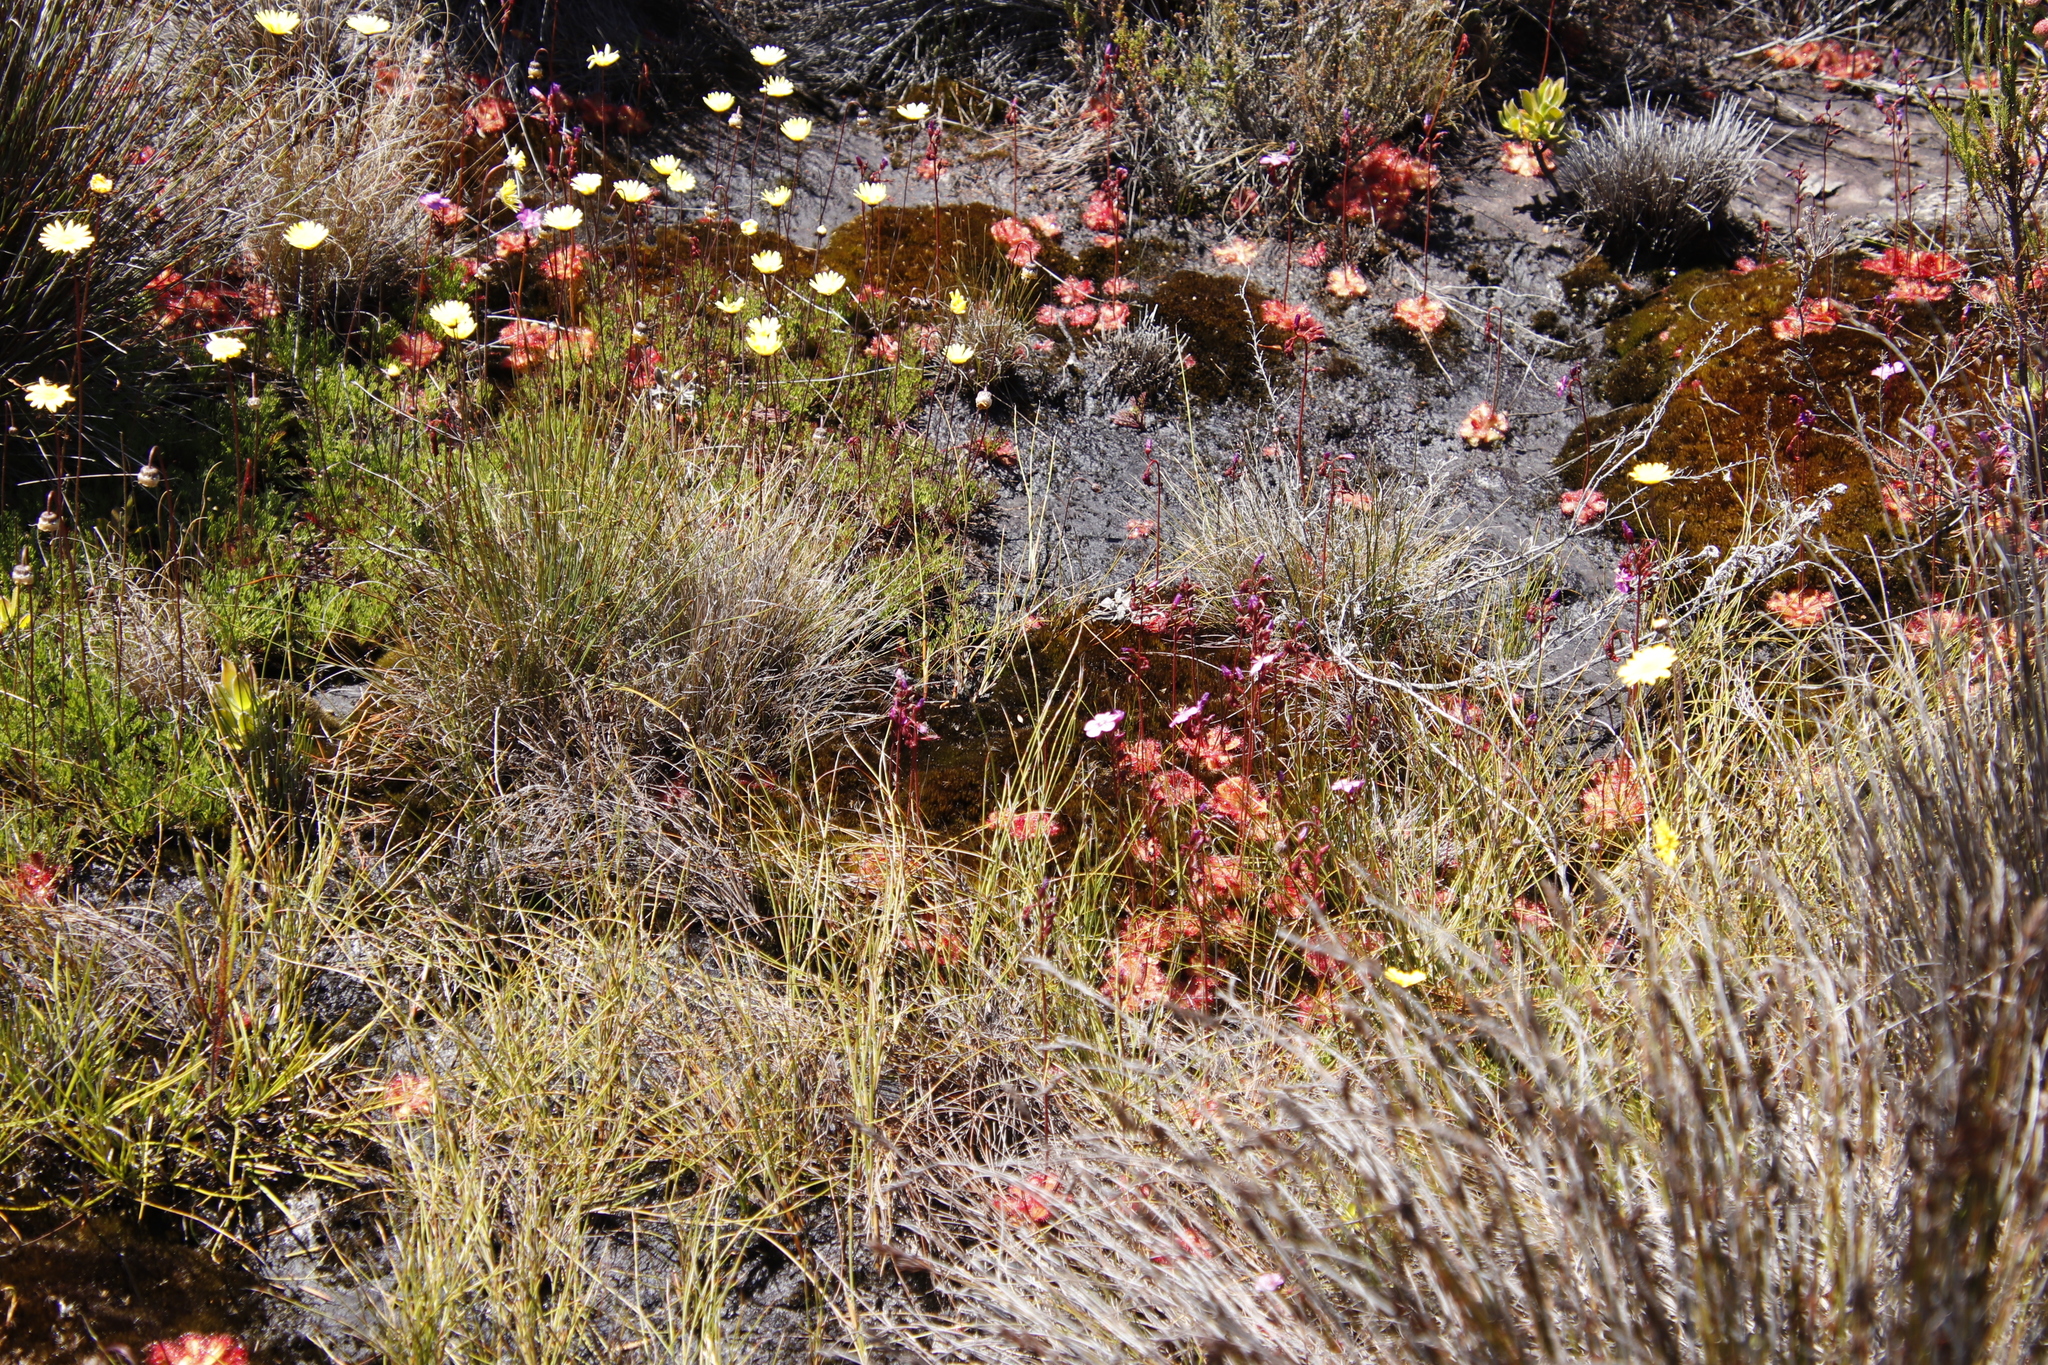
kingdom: Plantae
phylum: Tracheophyta
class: Magnoliopsida
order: Caryophyllales
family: Droseraceae
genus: Drosera
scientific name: Drosera cuneifolia
